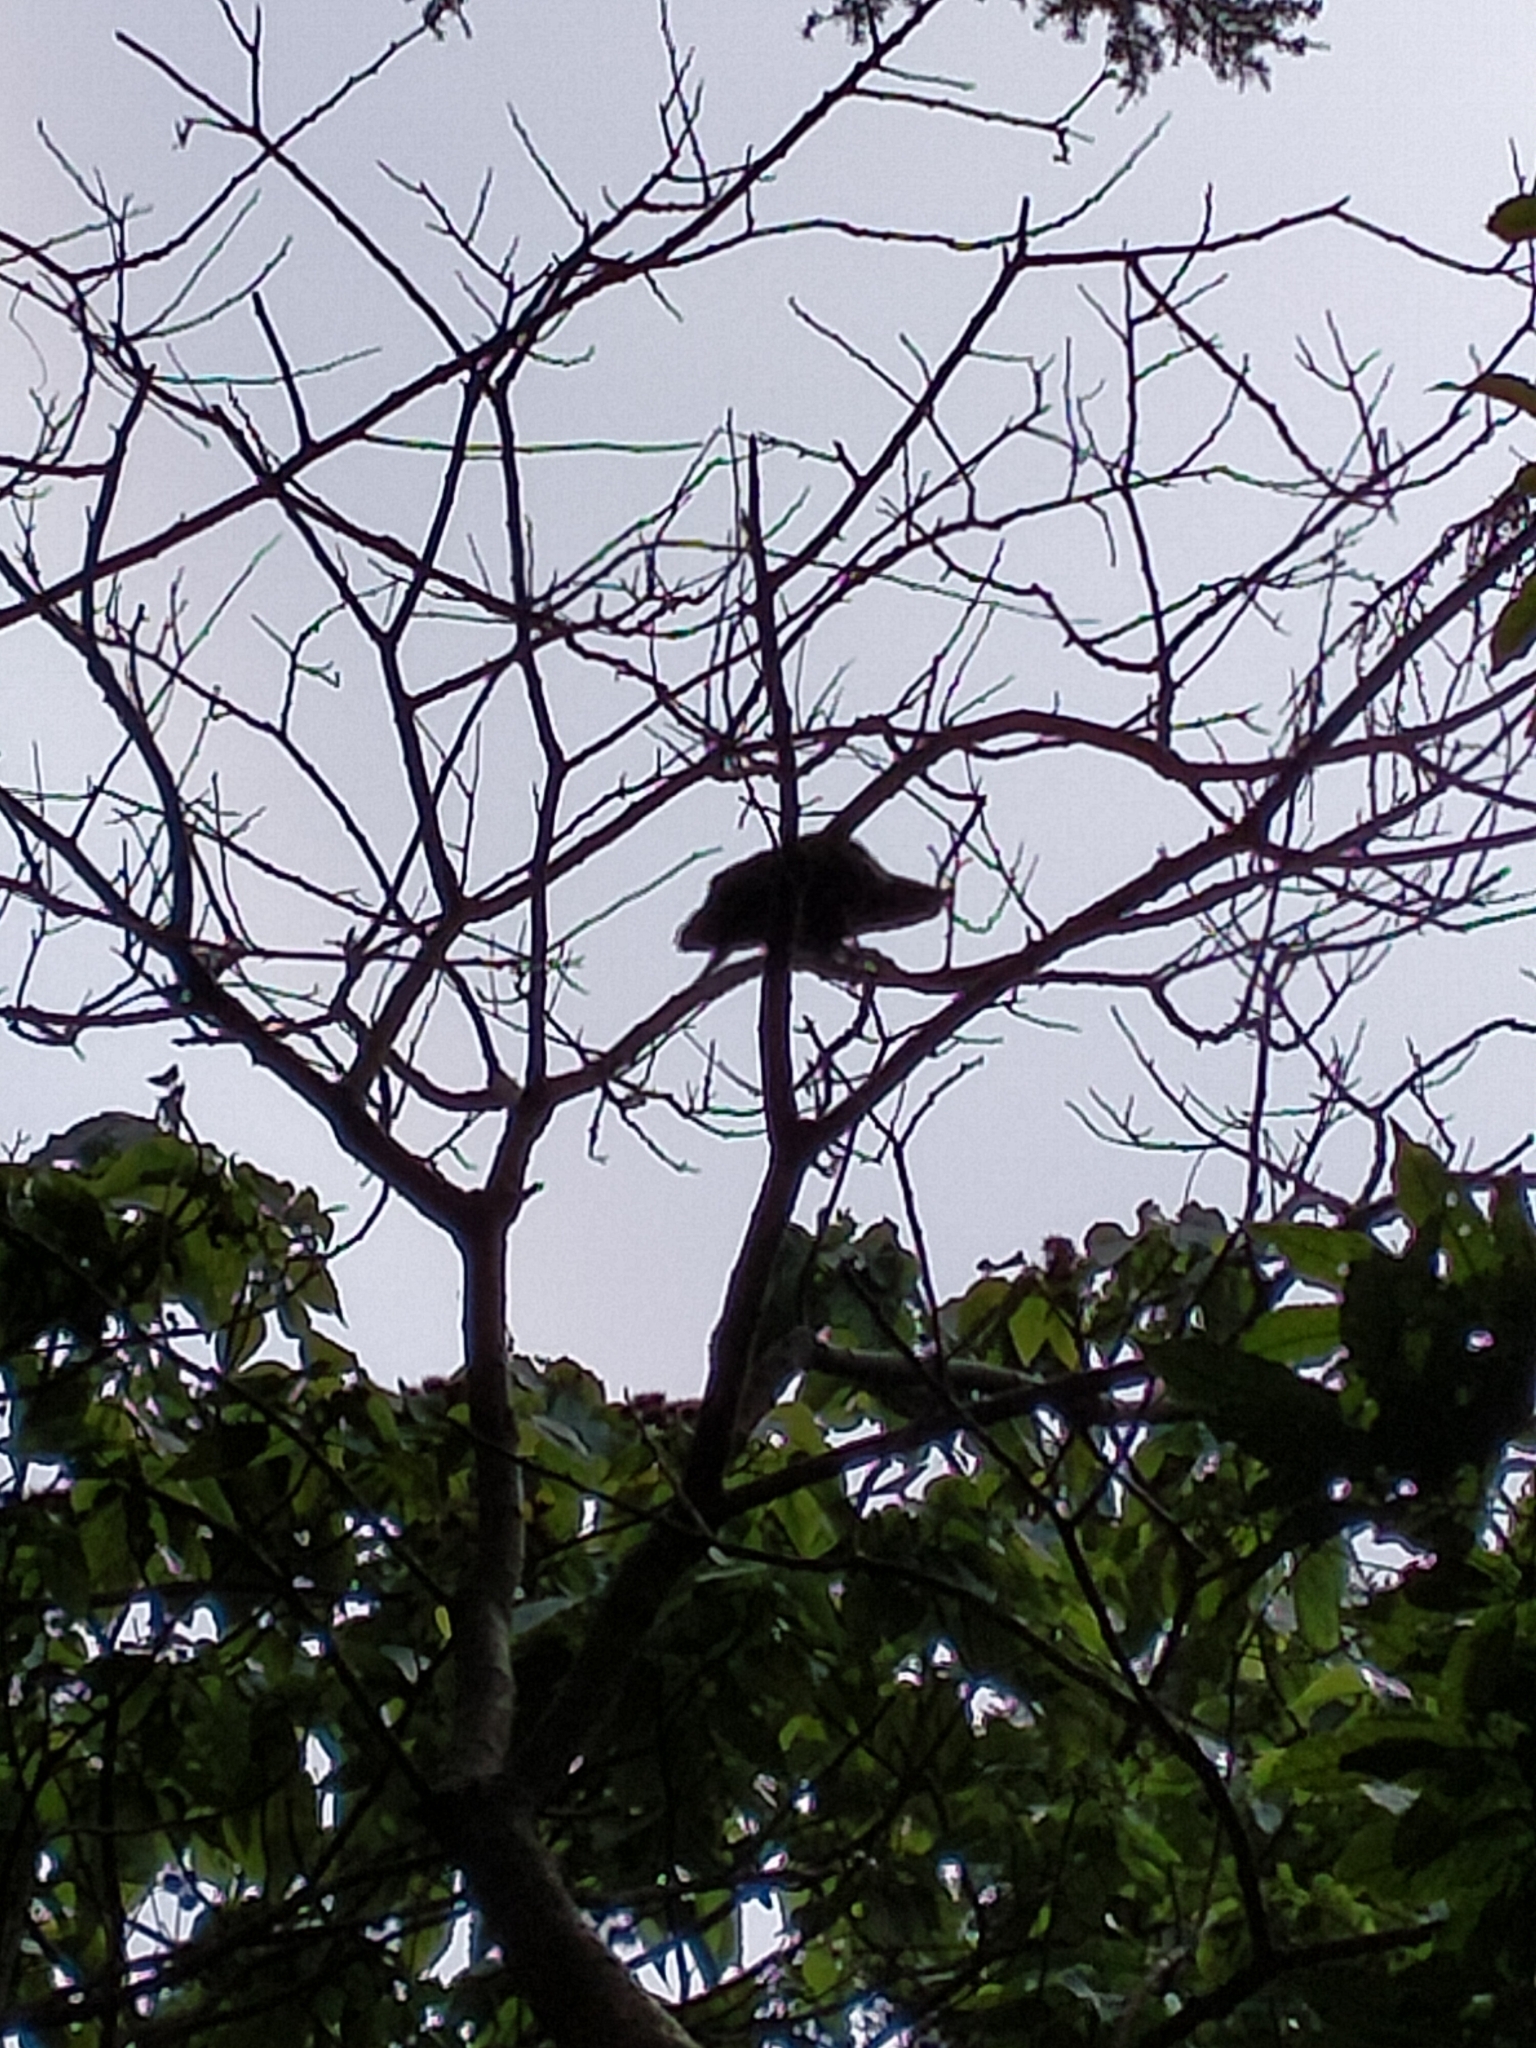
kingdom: Animalia
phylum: Chordata
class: Aves
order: Psittaciformes
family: Psittacidae
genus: Nestor
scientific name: Nestor meridionalis
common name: New zealand kaka
